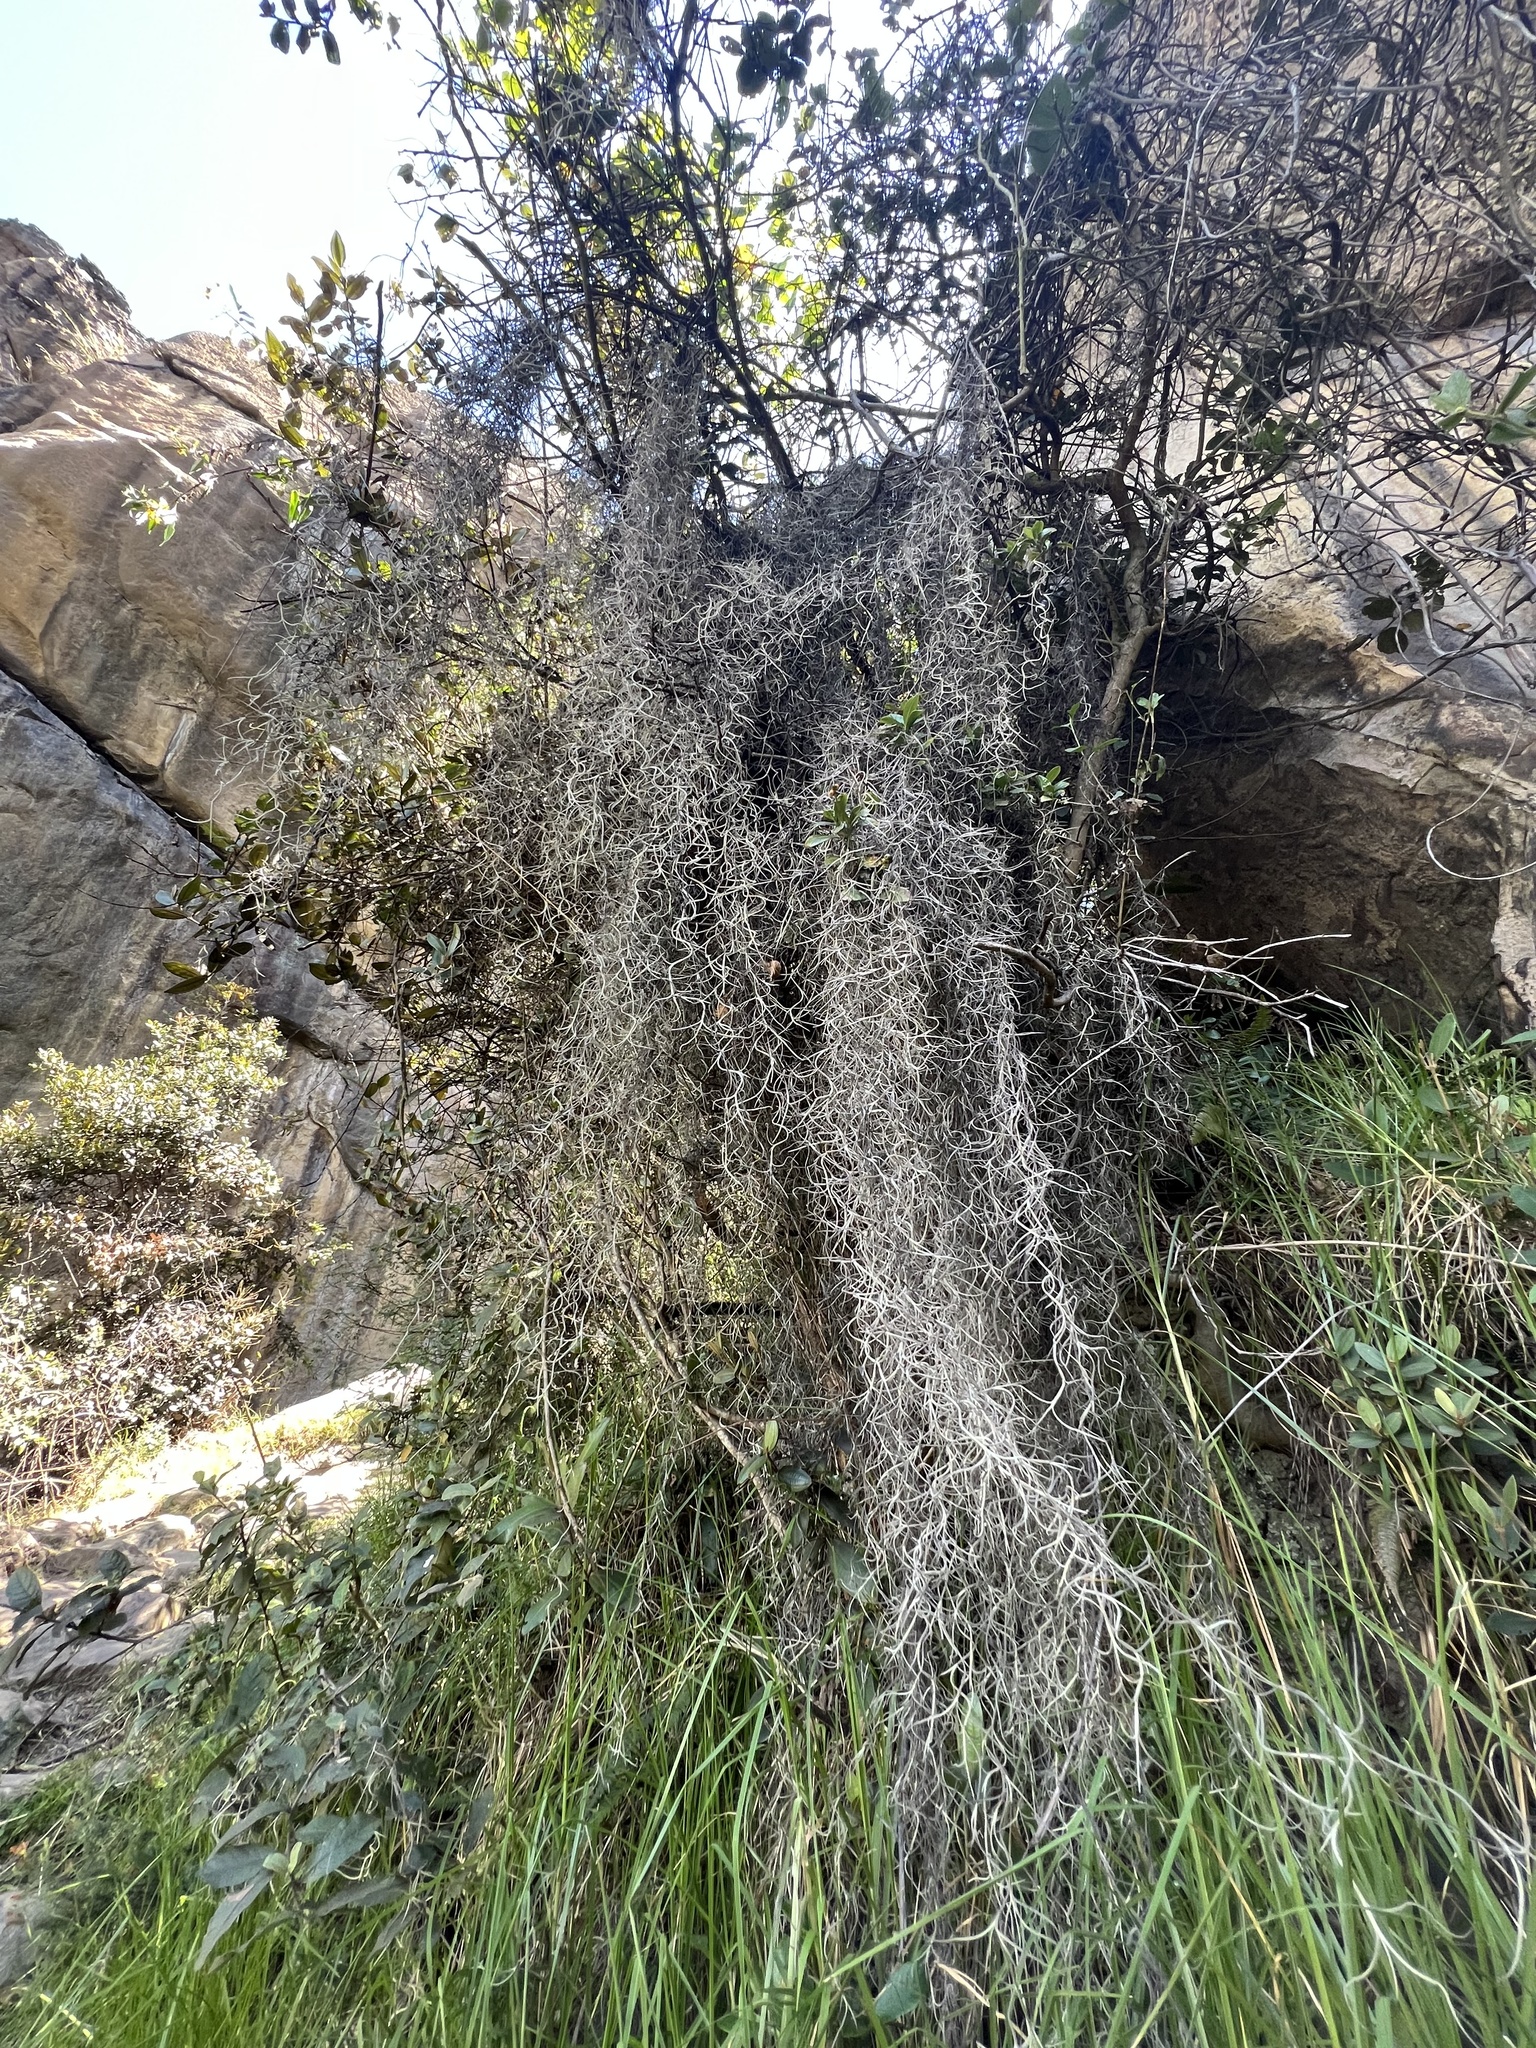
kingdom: Plantae
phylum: Tracheophyta
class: Liliopsida
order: Poales
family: Bromeliaceae
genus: Tillandsia
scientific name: Tillandsia usneoides
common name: Spanish moss
